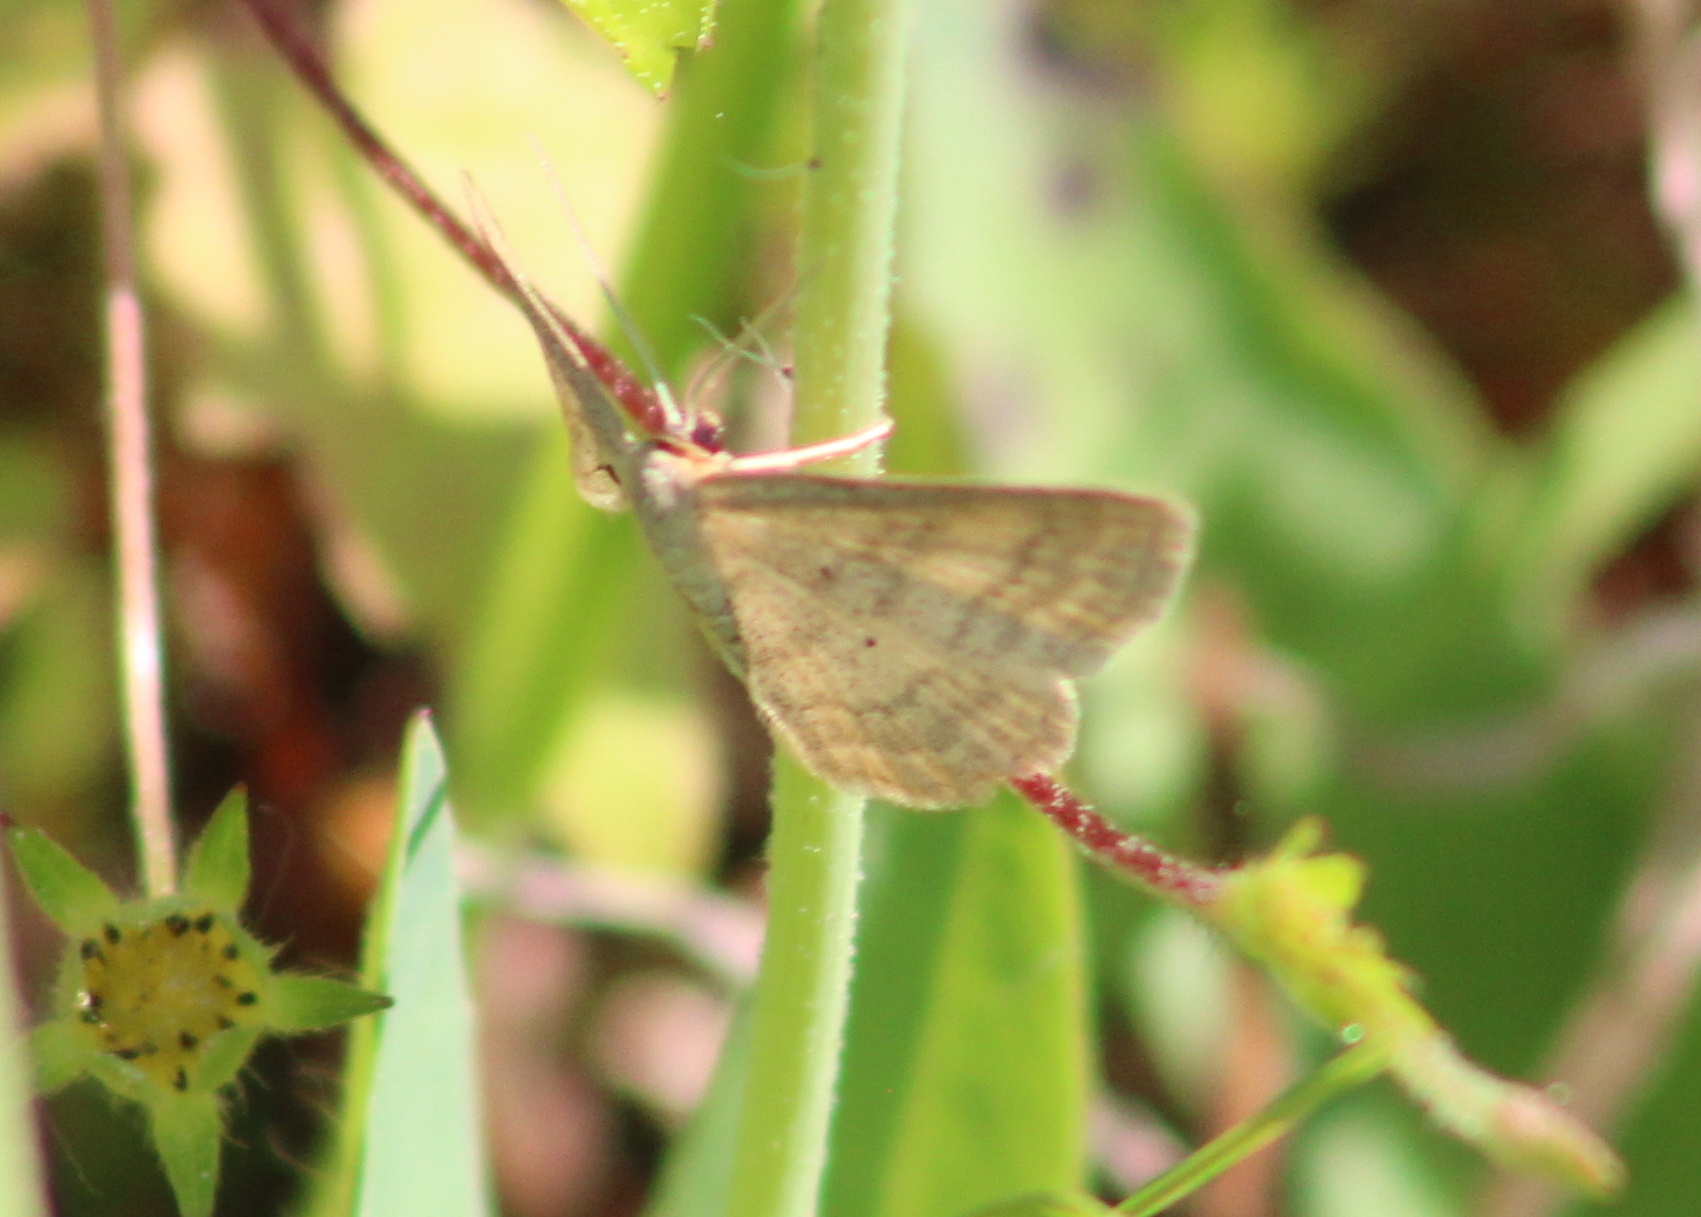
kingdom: Animalia
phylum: Arthropoda
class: Insecta
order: Lepidoptera
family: Geometridae
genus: Scopula
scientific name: Scopula inductata
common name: Soft-lined wave
